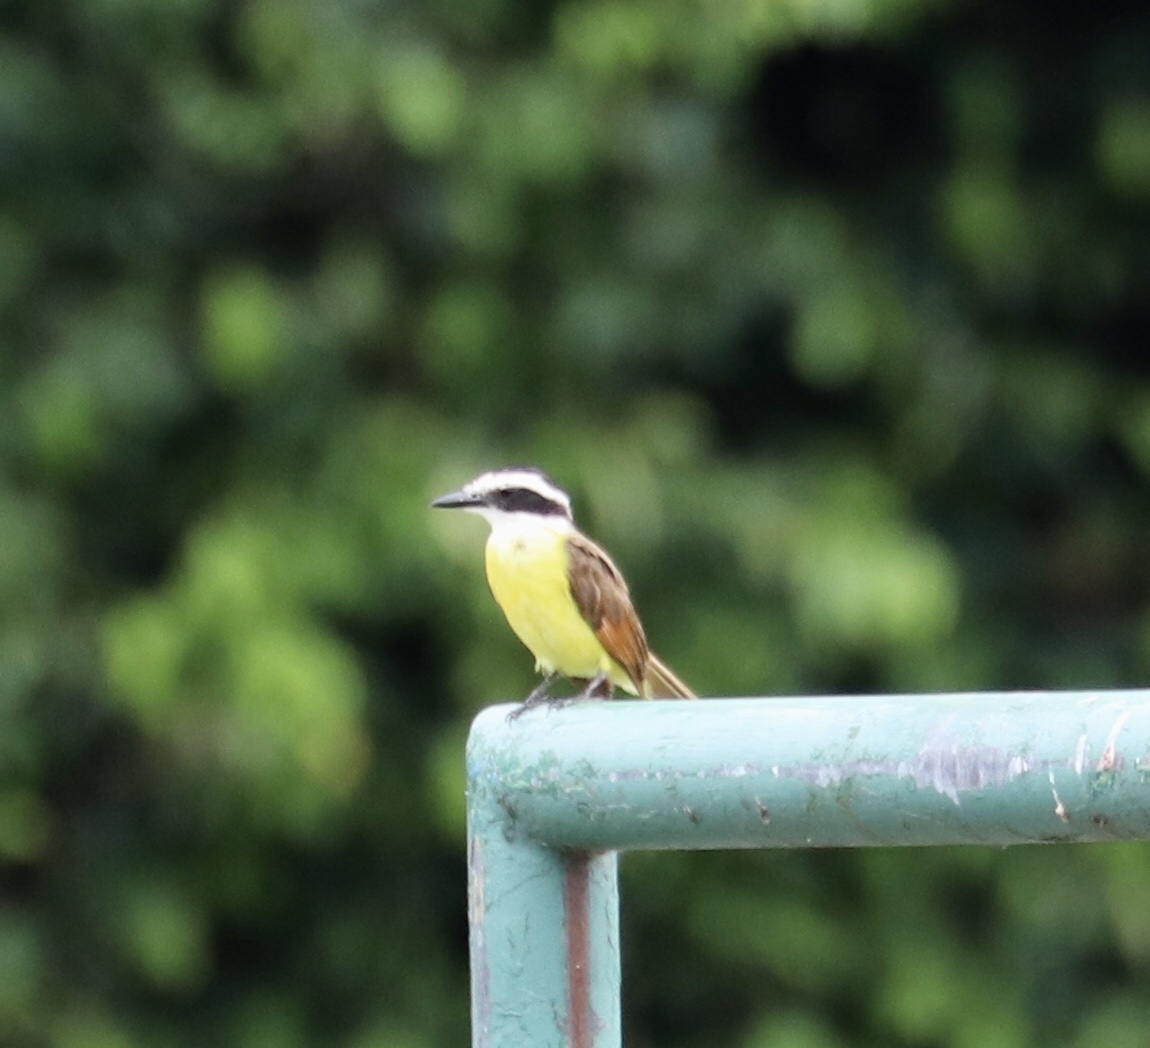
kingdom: Animalia
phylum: Chordata
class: Aves
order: Passeriformes
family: Tyrannidae
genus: Pitangus
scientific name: Pitangus sulphuratus
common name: Great kiskadee
